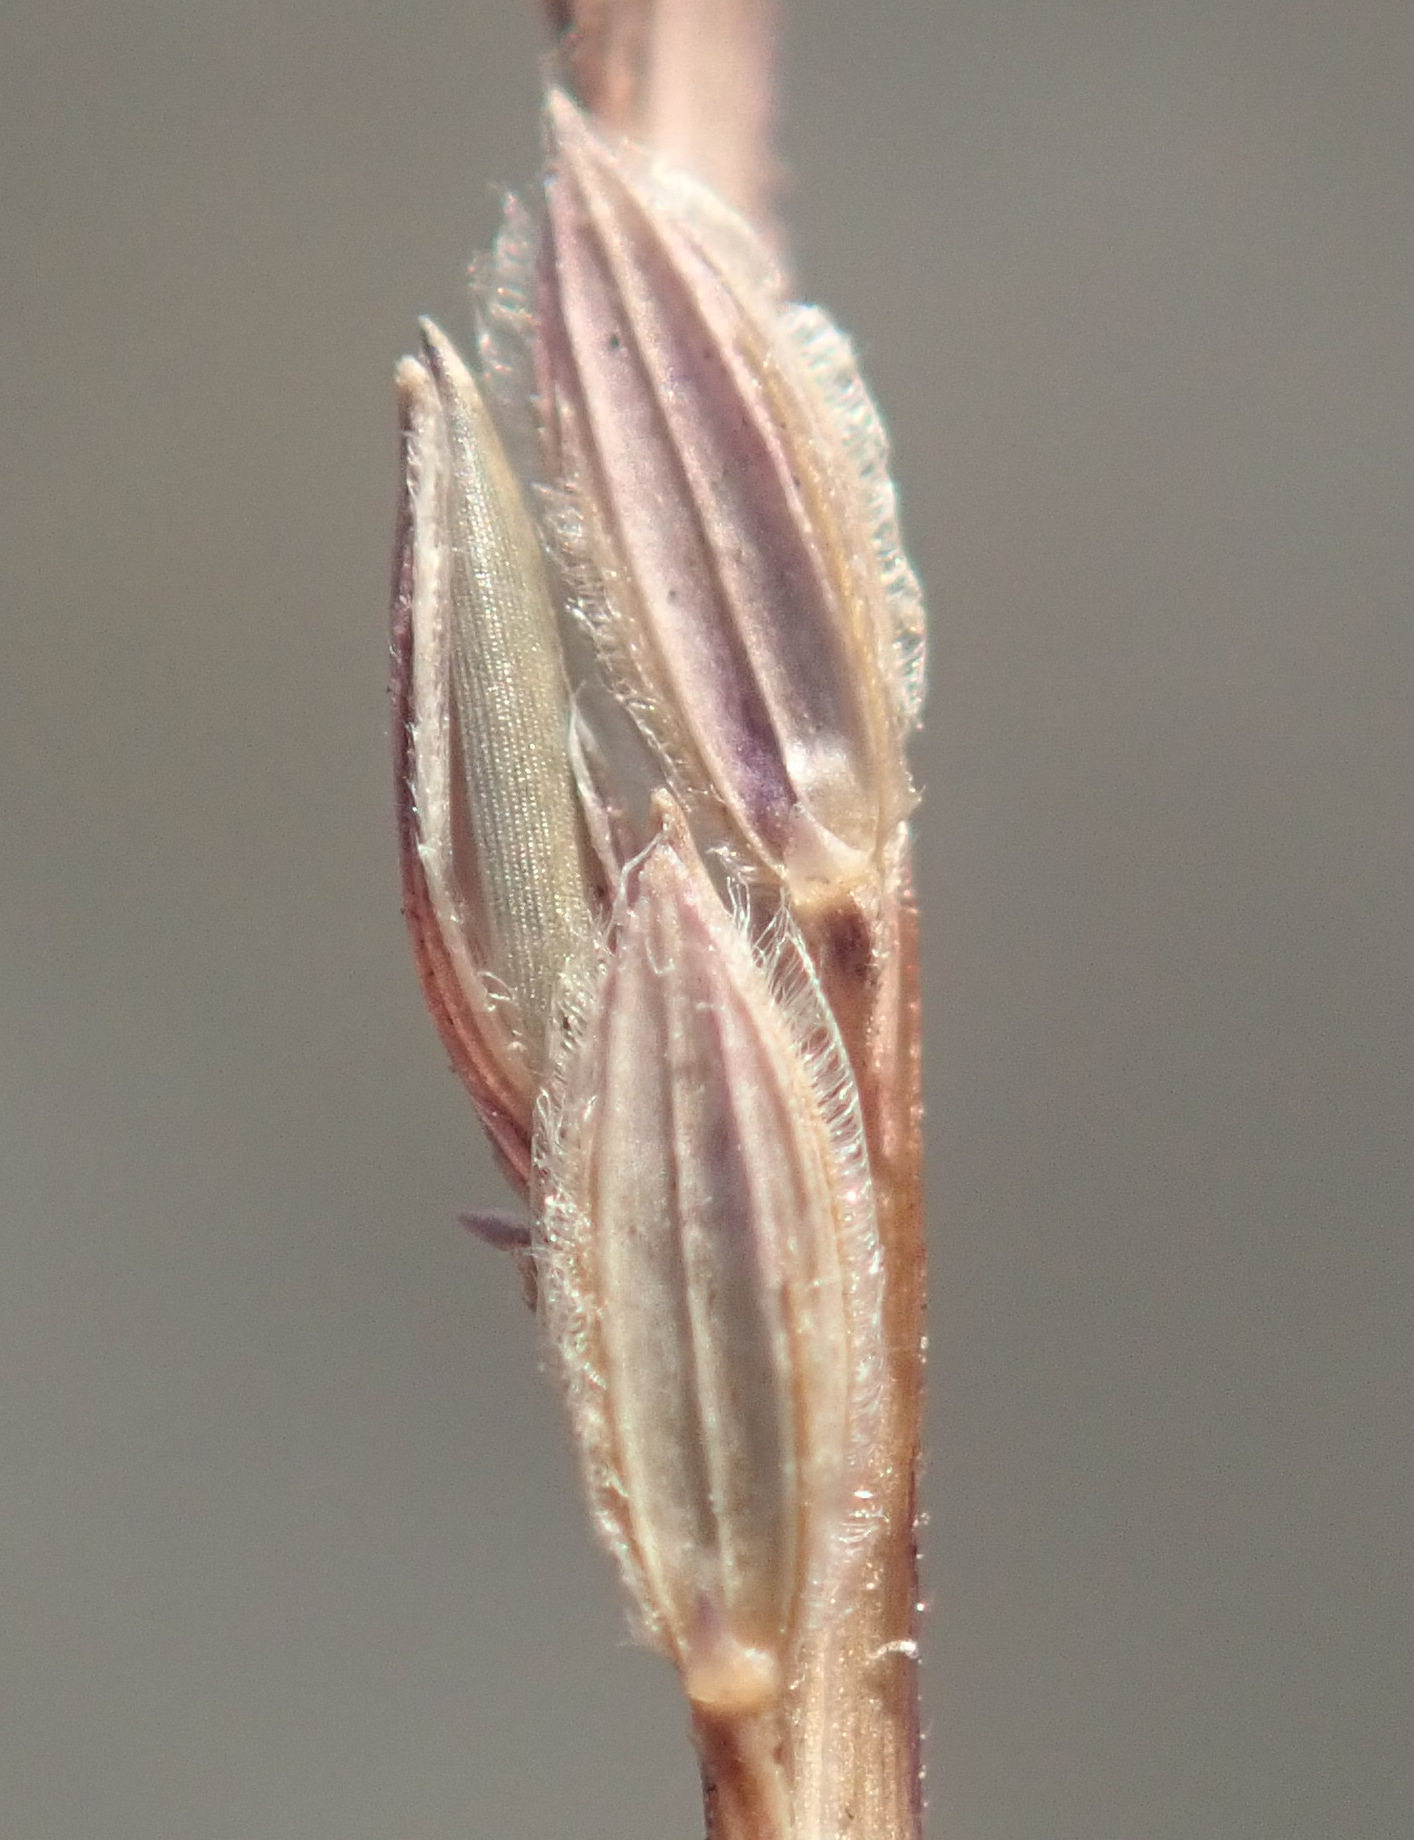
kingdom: Plantae
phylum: Tracheophyta
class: Liliopsida
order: Poales
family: Poaceae
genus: Digitaria
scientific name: Digitaria sanguinalis
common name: Hairy crabgrass
